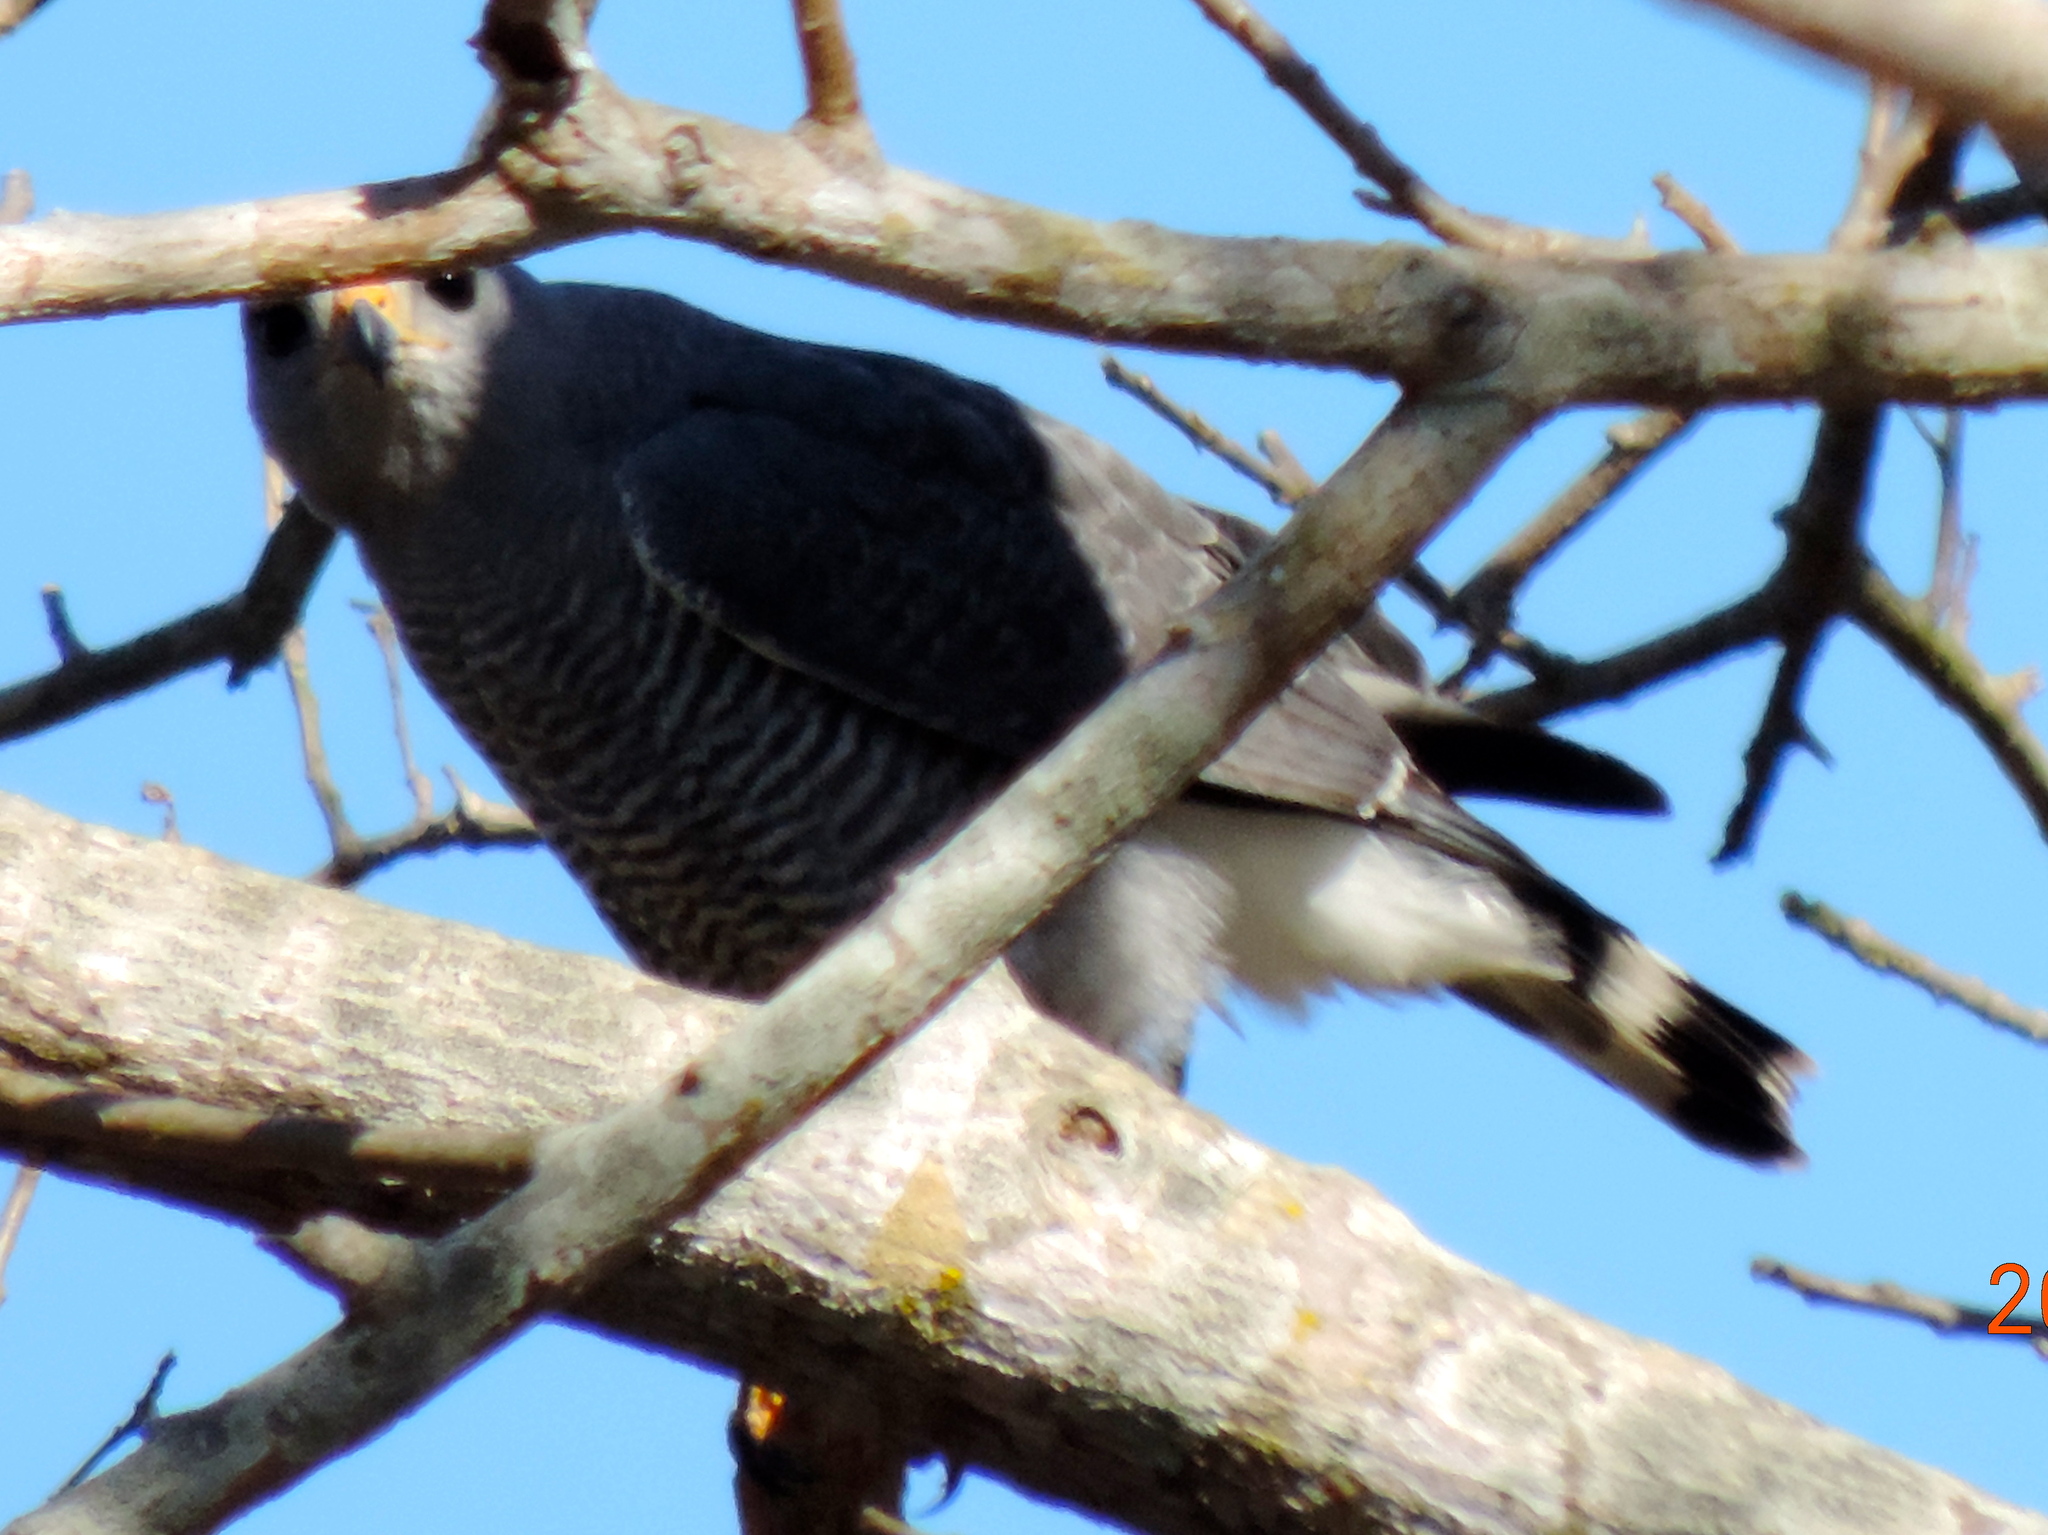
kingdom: Animalia
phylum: Chordata
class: Aves
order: Accipitriformes
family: Accipitridae
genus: Buteo
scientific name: Buteo nitidus
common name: Grey-lined hawk
